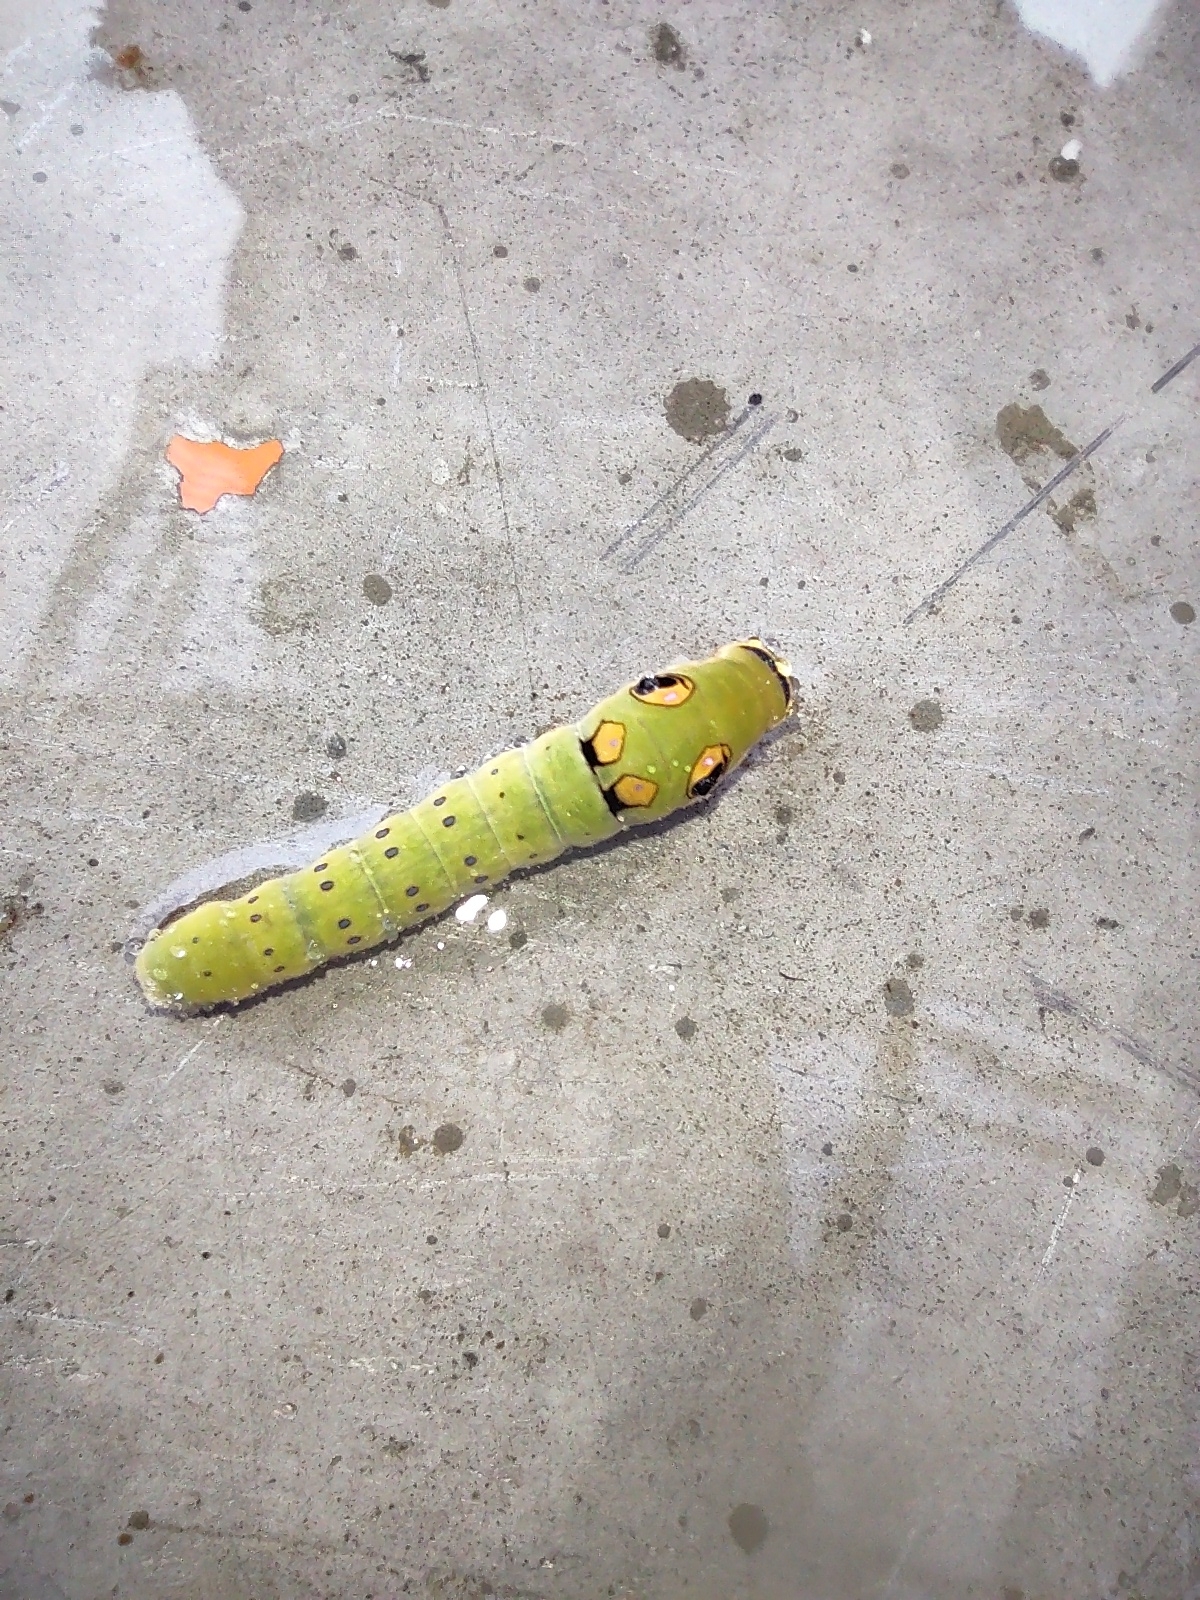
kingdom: Animalia
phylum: Arthropoda
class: Insecta
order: Lepidoptera
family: Papilionidae
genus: Papilio
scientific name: Papilio troilus
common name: Spicebush swallowtail
